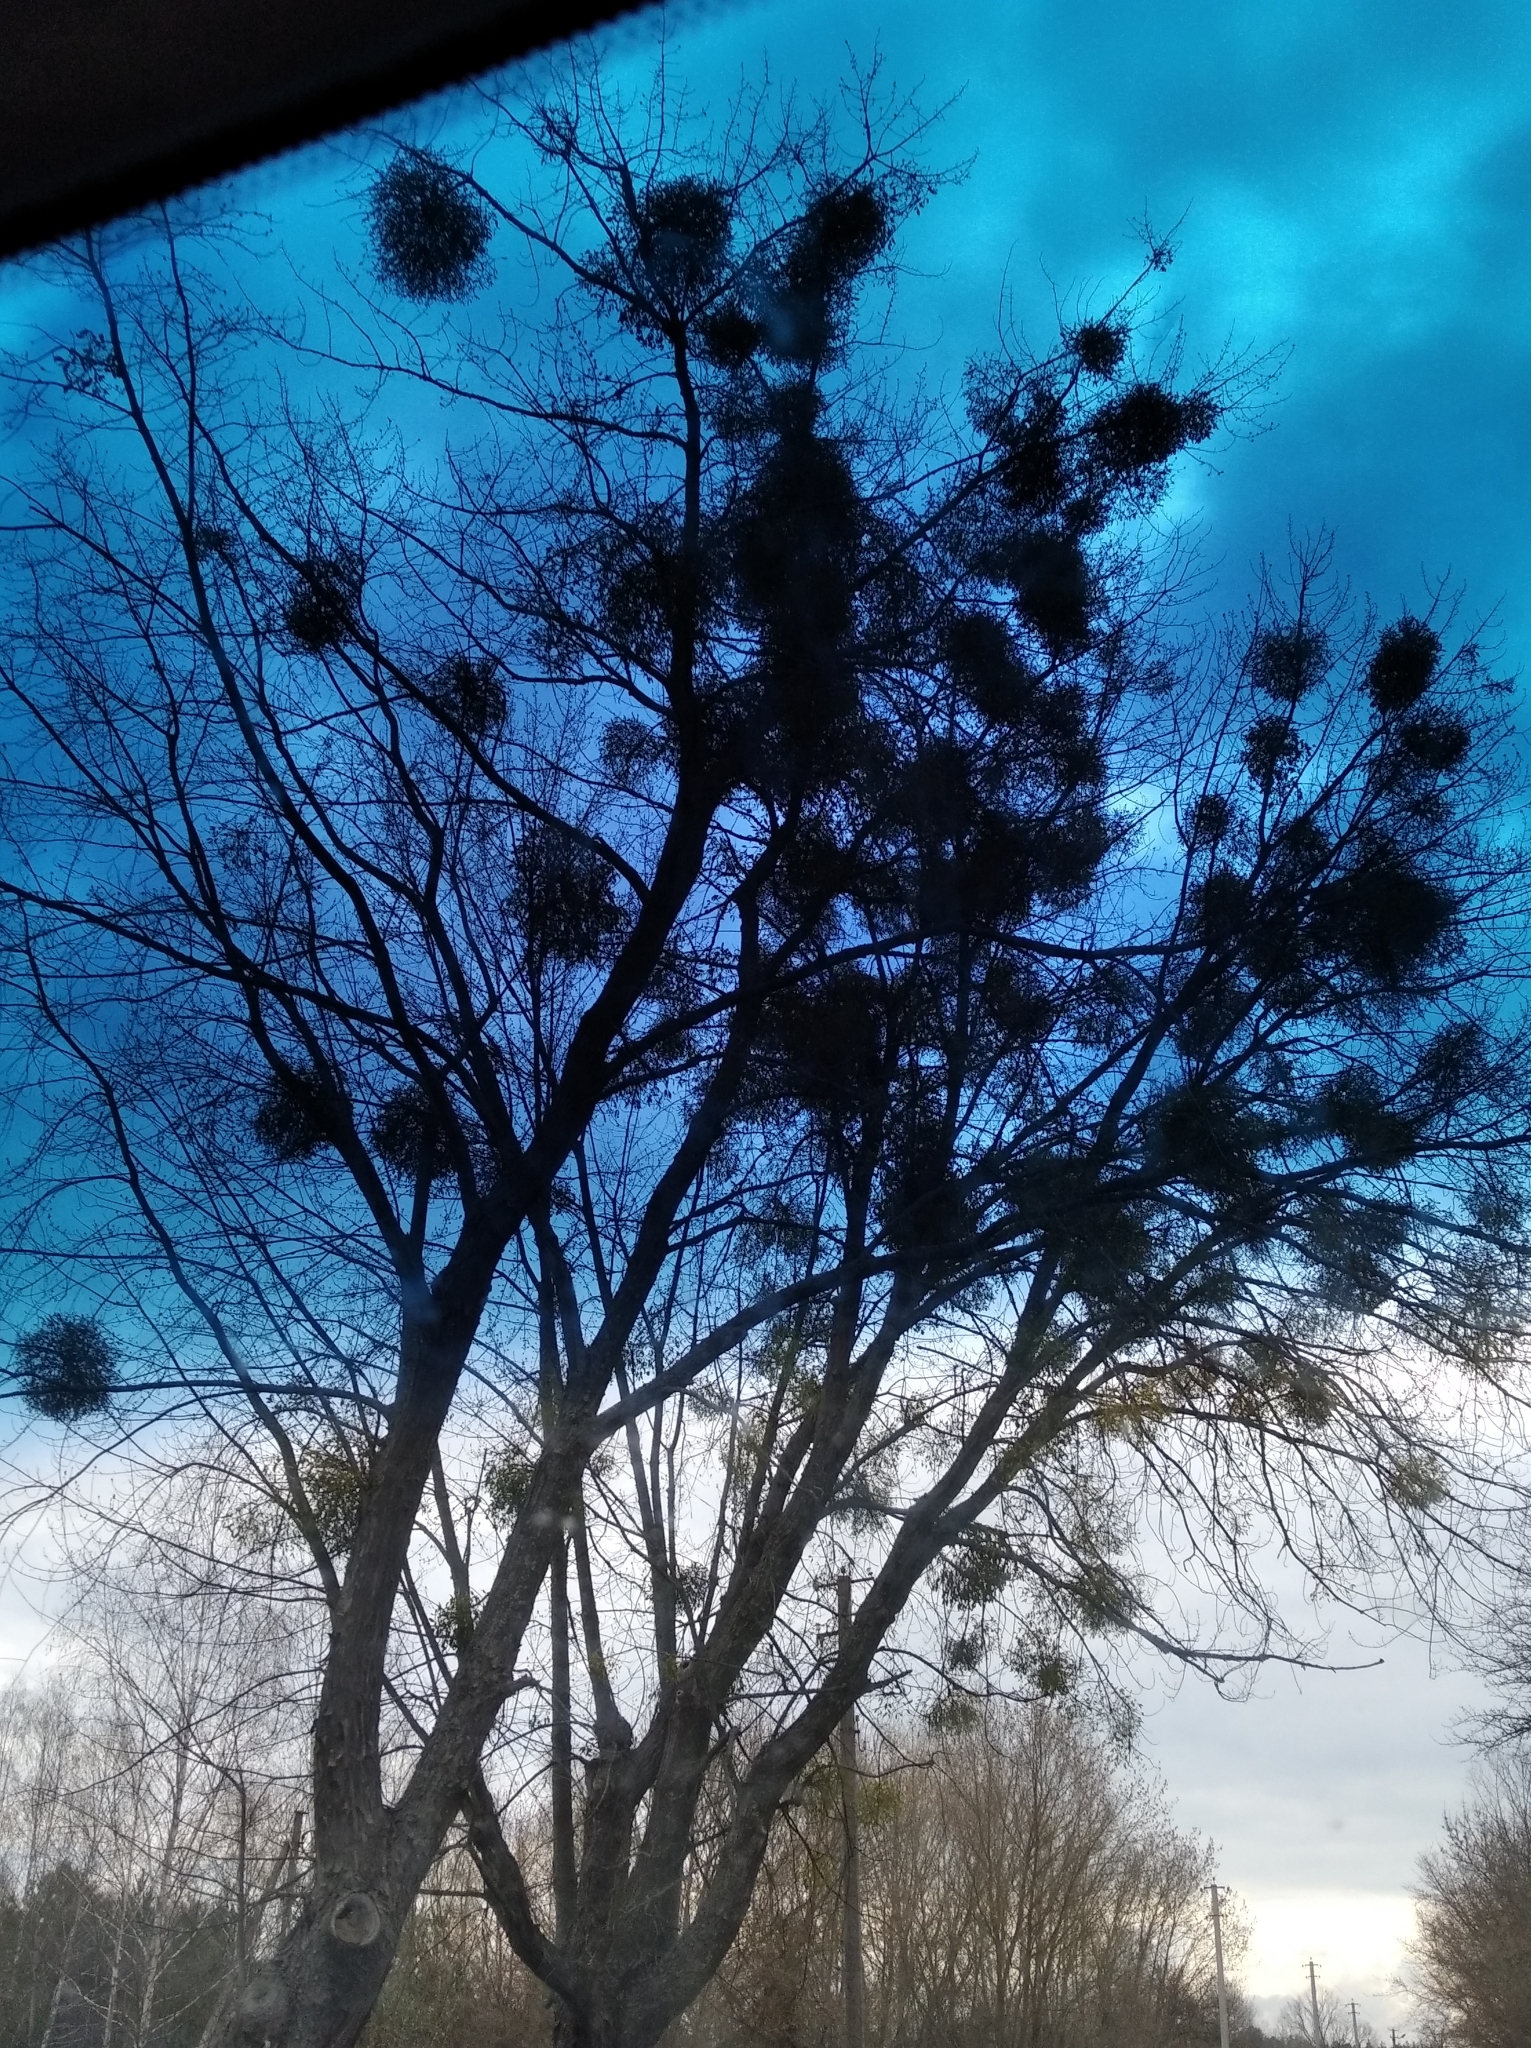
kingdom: Plantae
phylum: Tracheophyta
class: Magnoliopsida
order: Santalales
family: Viscaceae
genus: Viscum
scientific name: Viscum album
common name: Mistletoe
